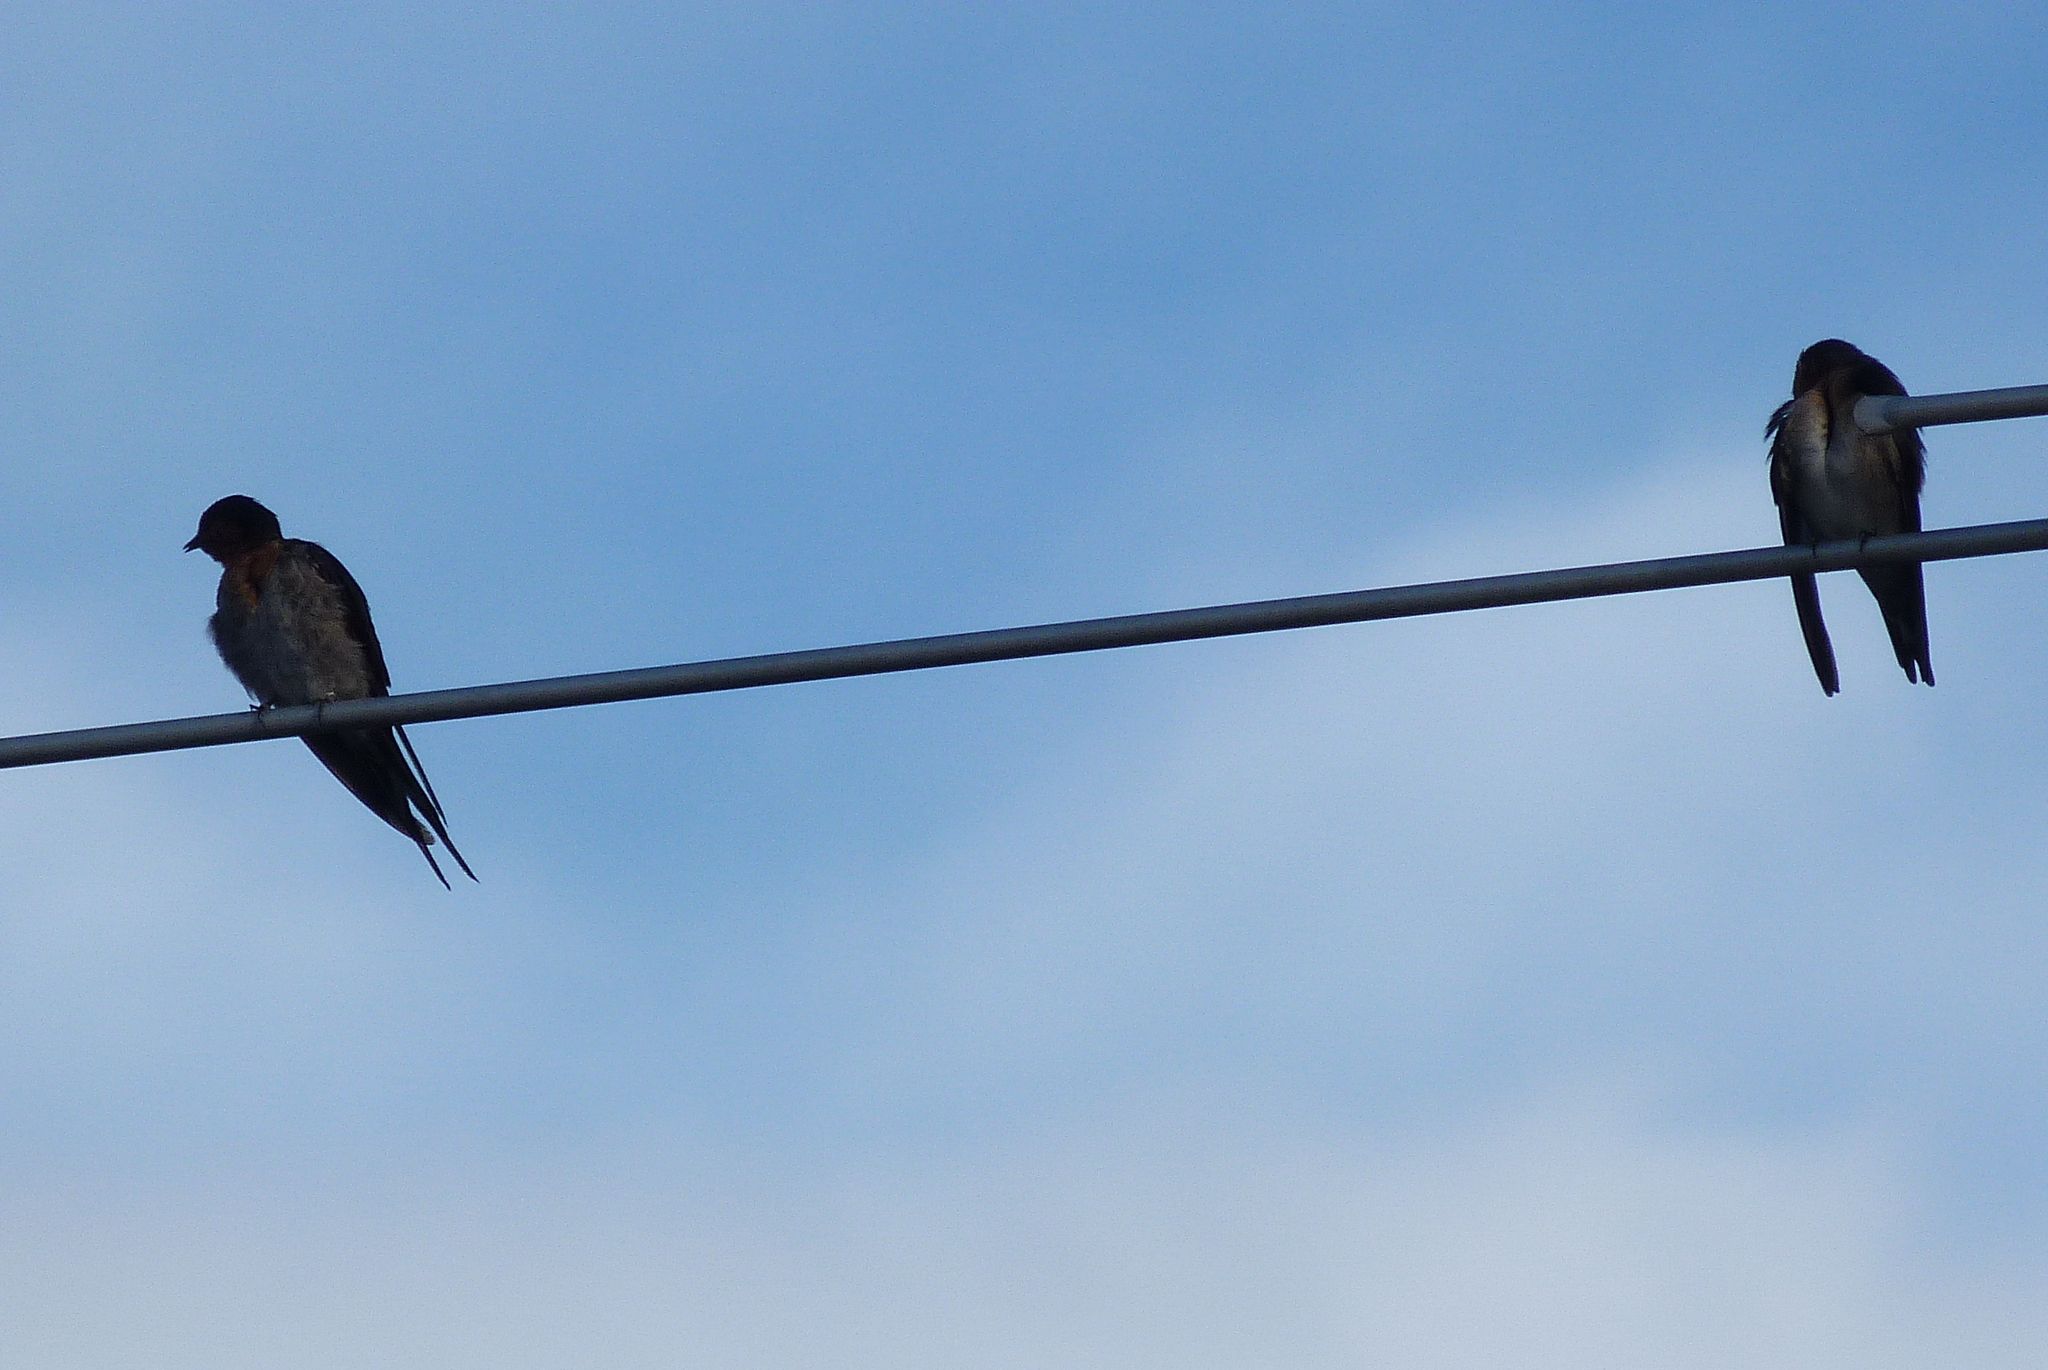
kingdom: Animalia
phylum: Chordata
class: Aves
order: Passeriformes
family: Hirundinidae
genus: Hirundo
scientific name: Hirundo neoxena
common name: Welcome swallow
